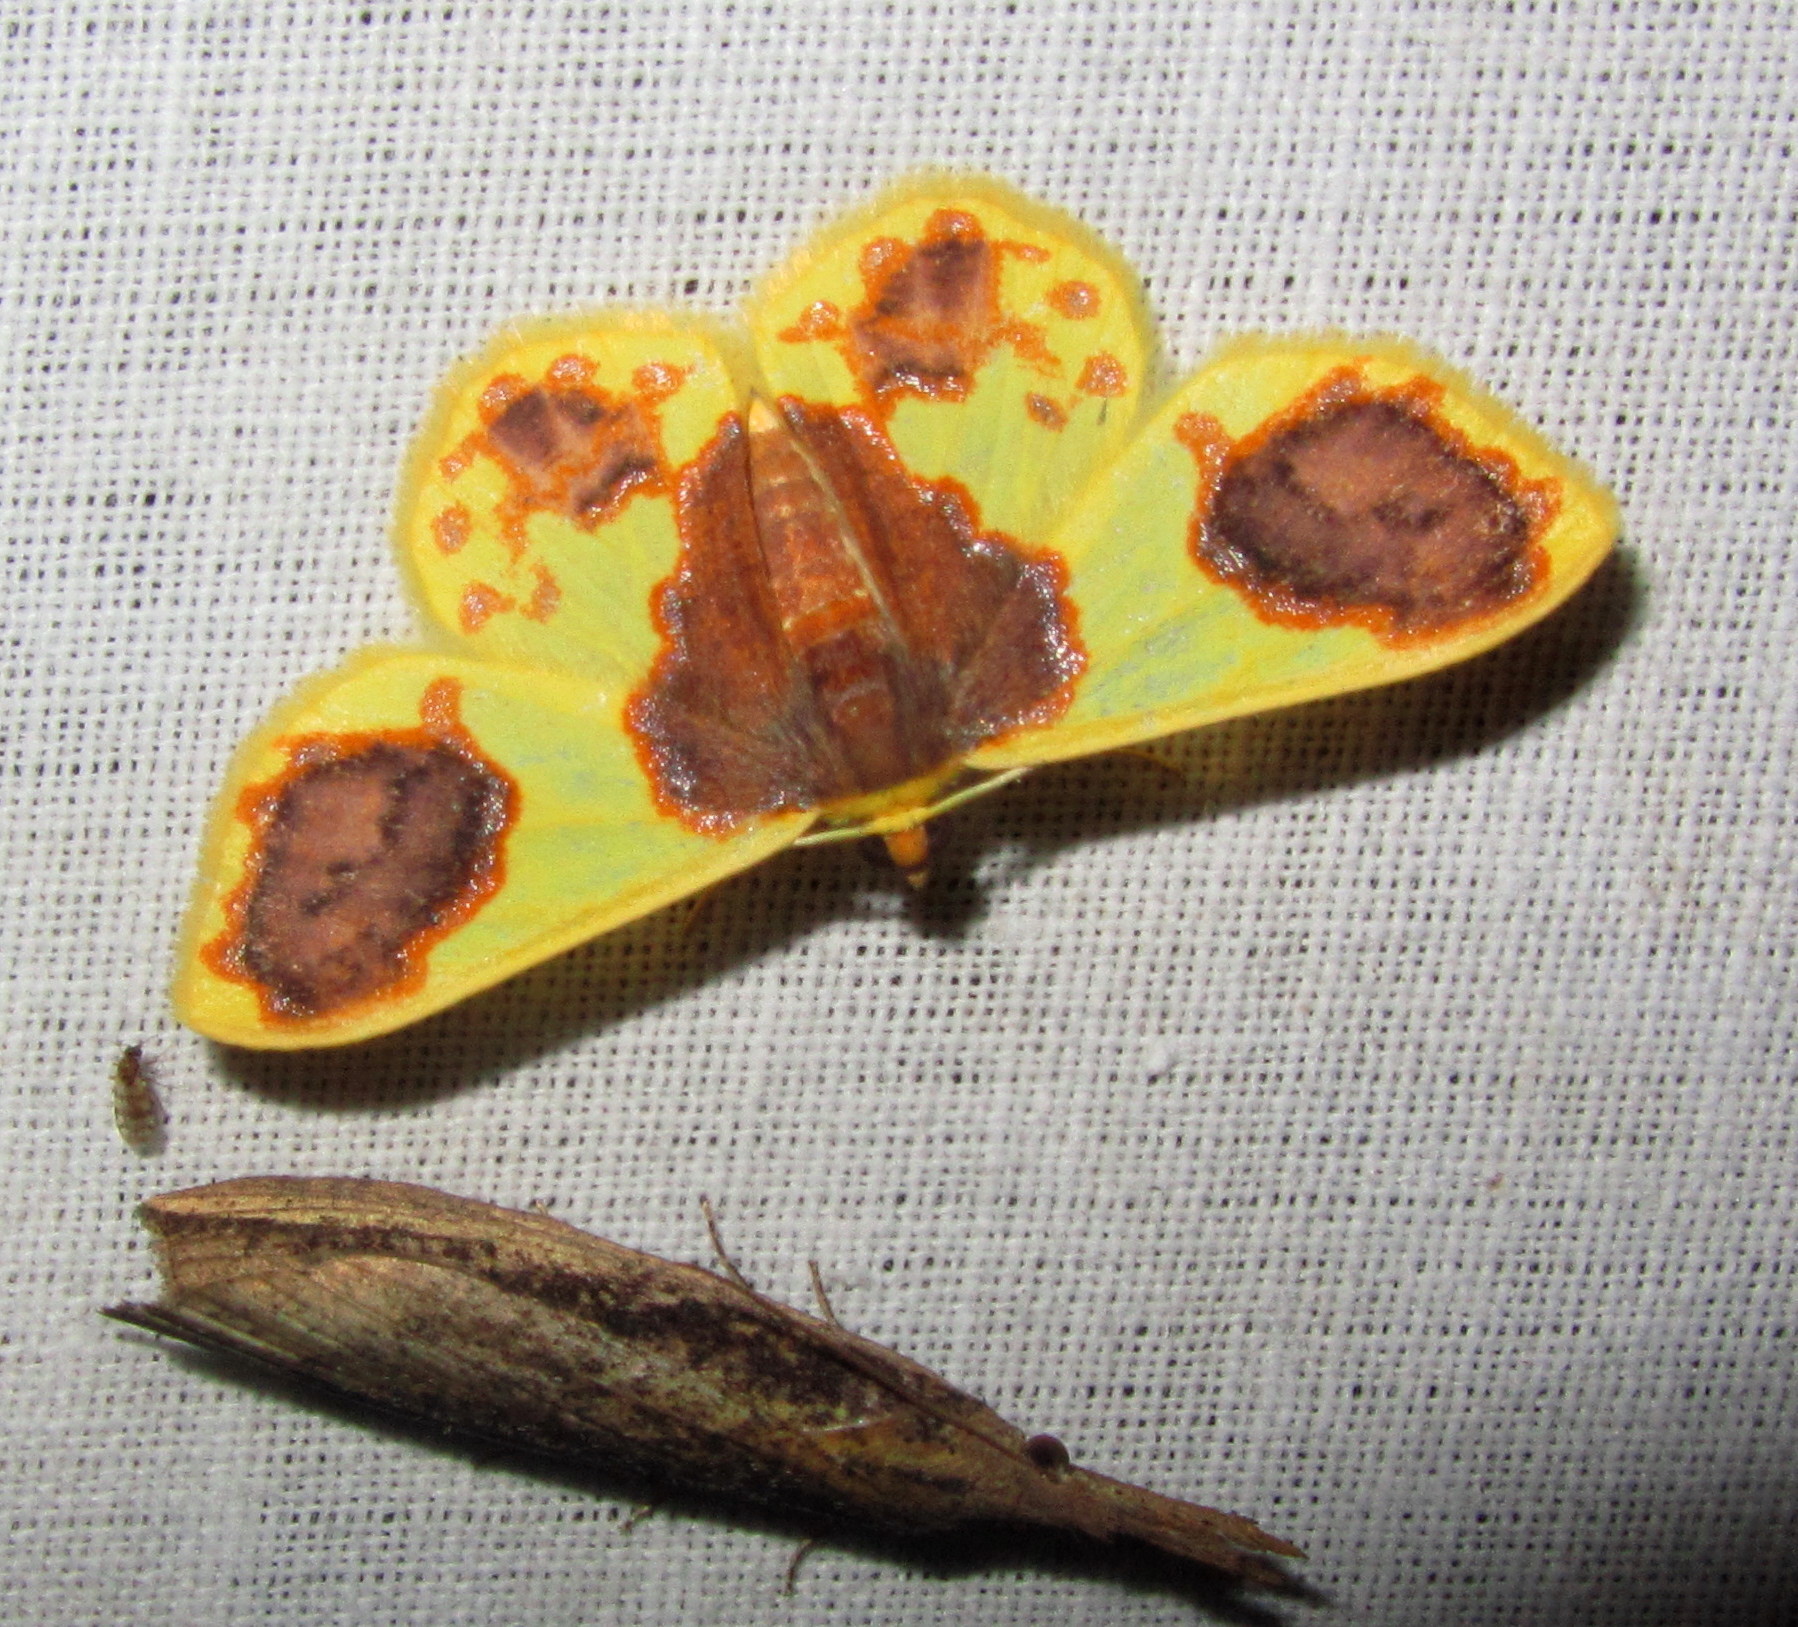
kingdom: Animalia
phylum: Arthropoda
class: Insecta
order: Lepidoptera
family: Geometridae
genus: Plutodes
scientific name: Plutodes lamisca
